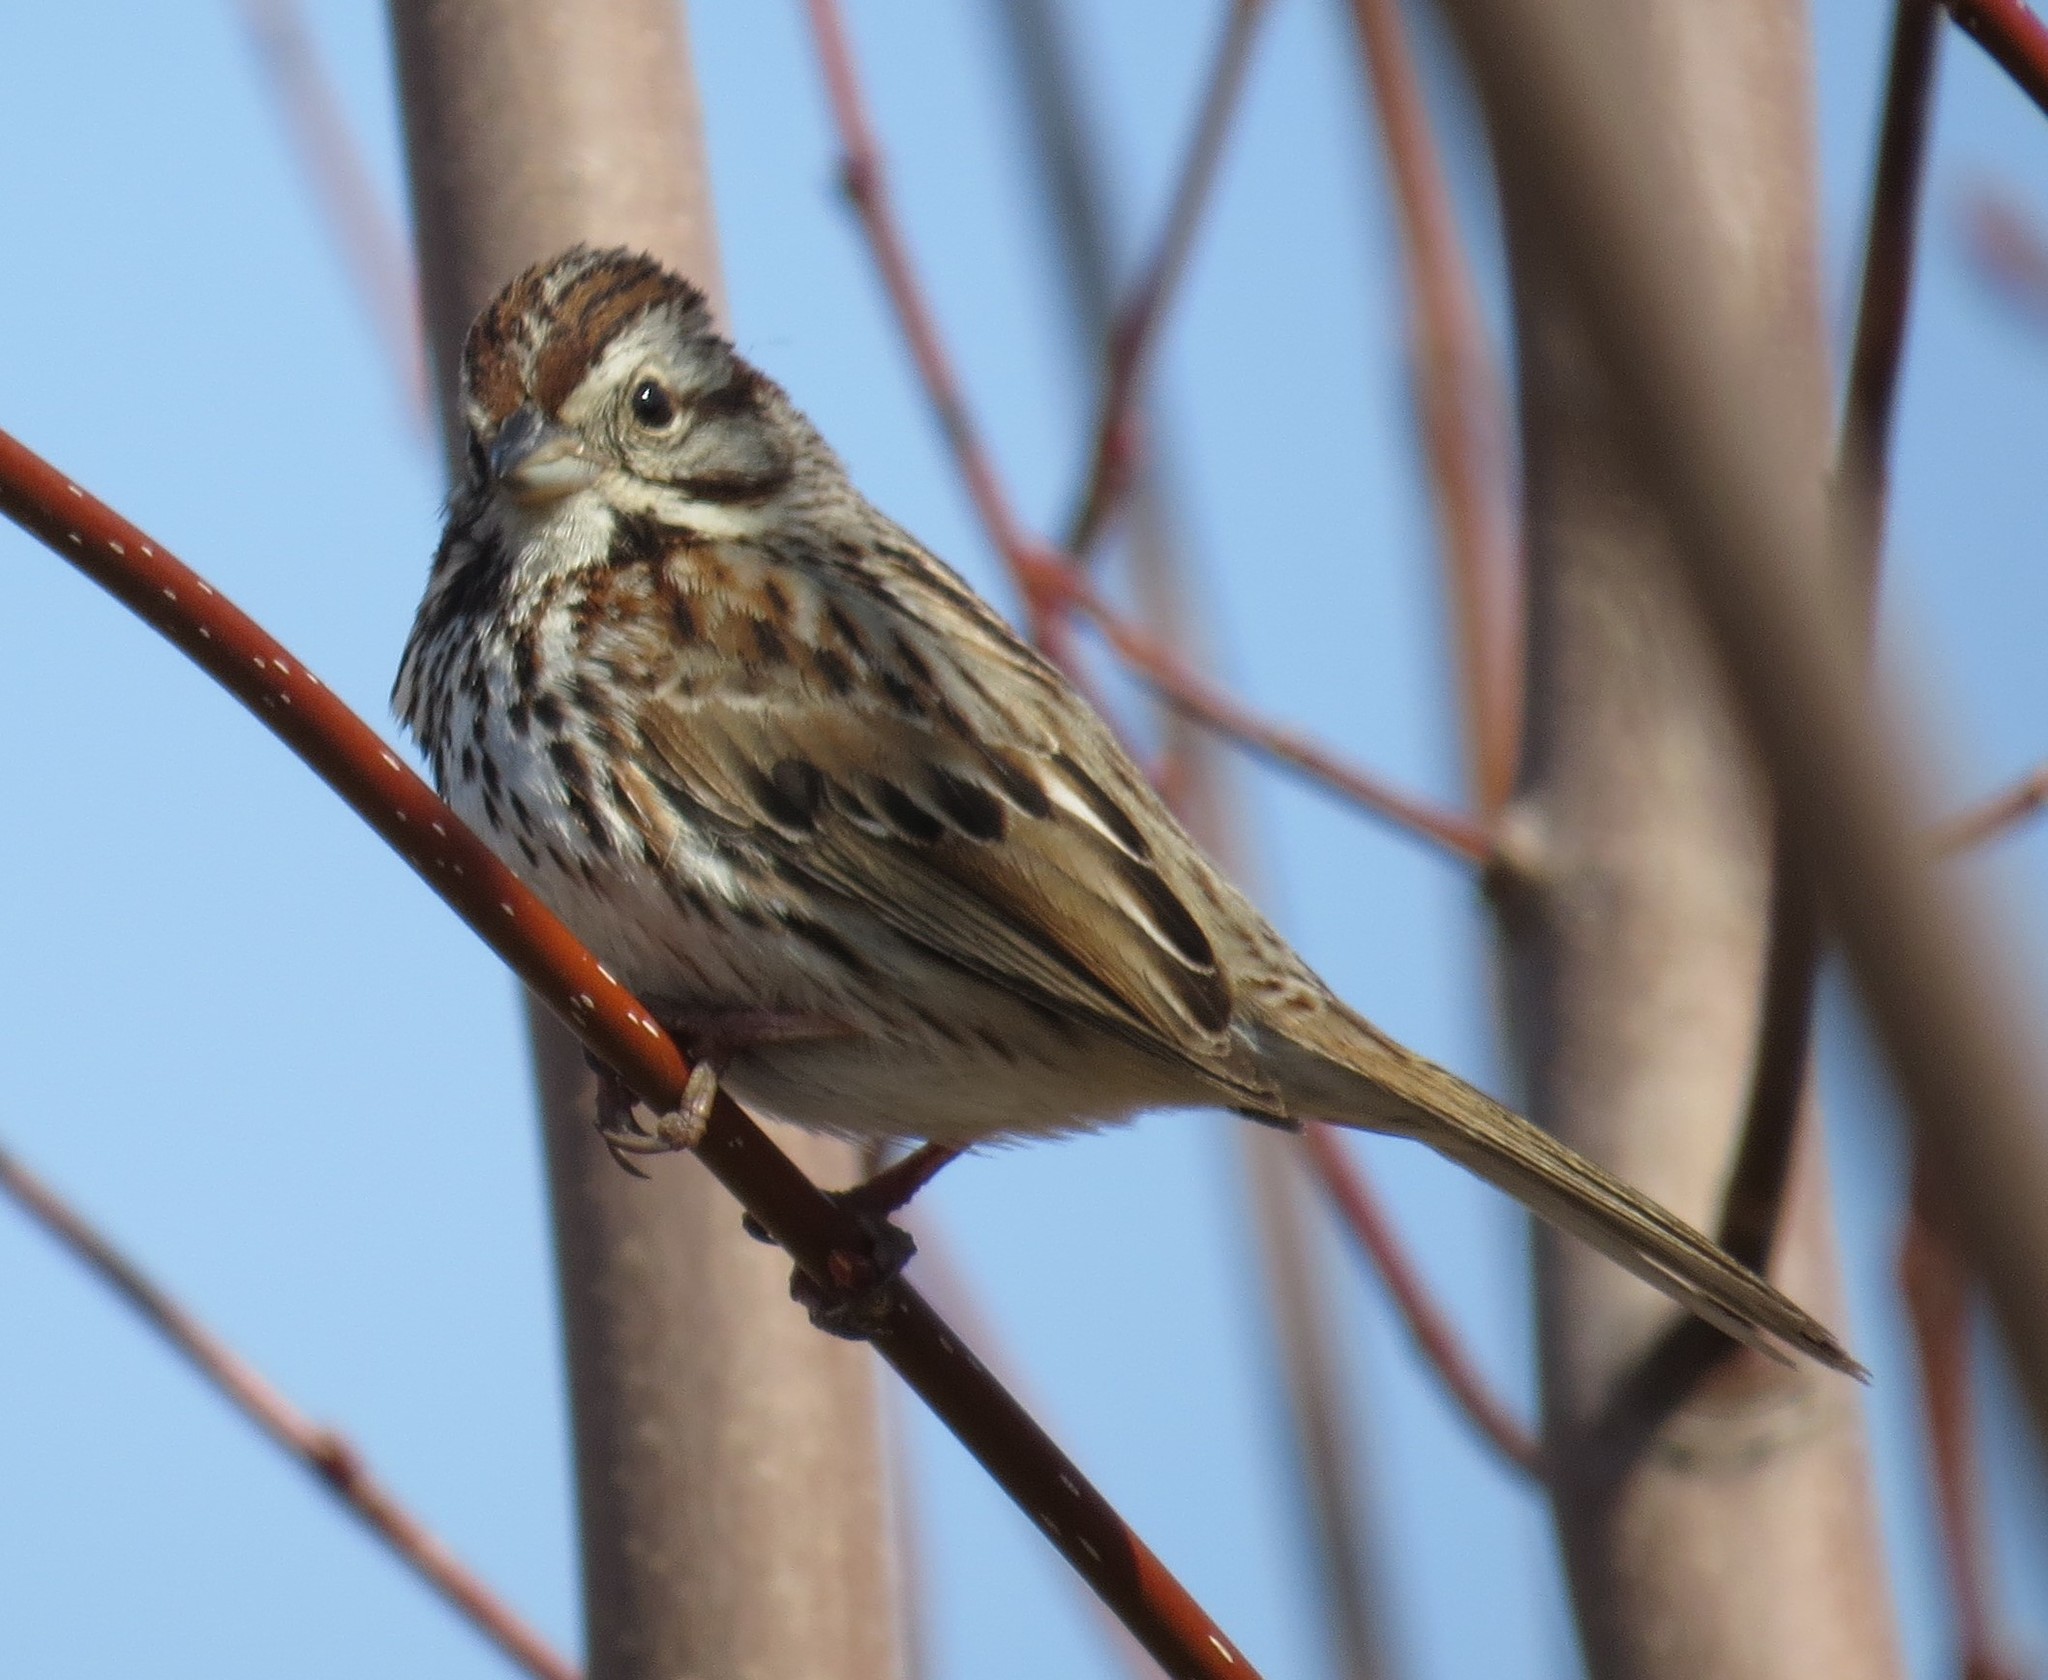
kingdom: Animalia
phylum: Chordata
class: Aves
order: Passeriformes
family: Passerellidae
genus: Melospiza
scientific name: Melospiza melodia
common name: Song sparrow
